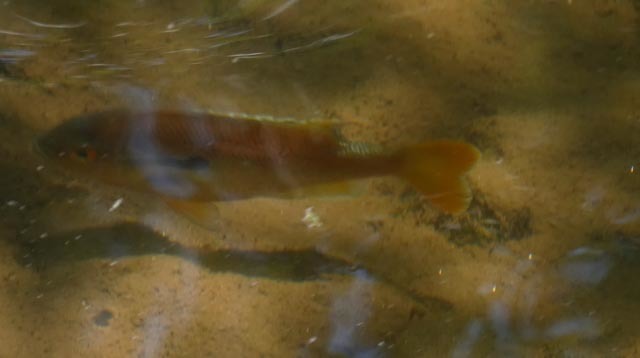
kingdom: Animalia
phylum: Chordata
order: Perciformes
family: Centrarchidae
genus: Lepomis
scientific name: Lepomis auritus
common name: Redbreast sunfish
